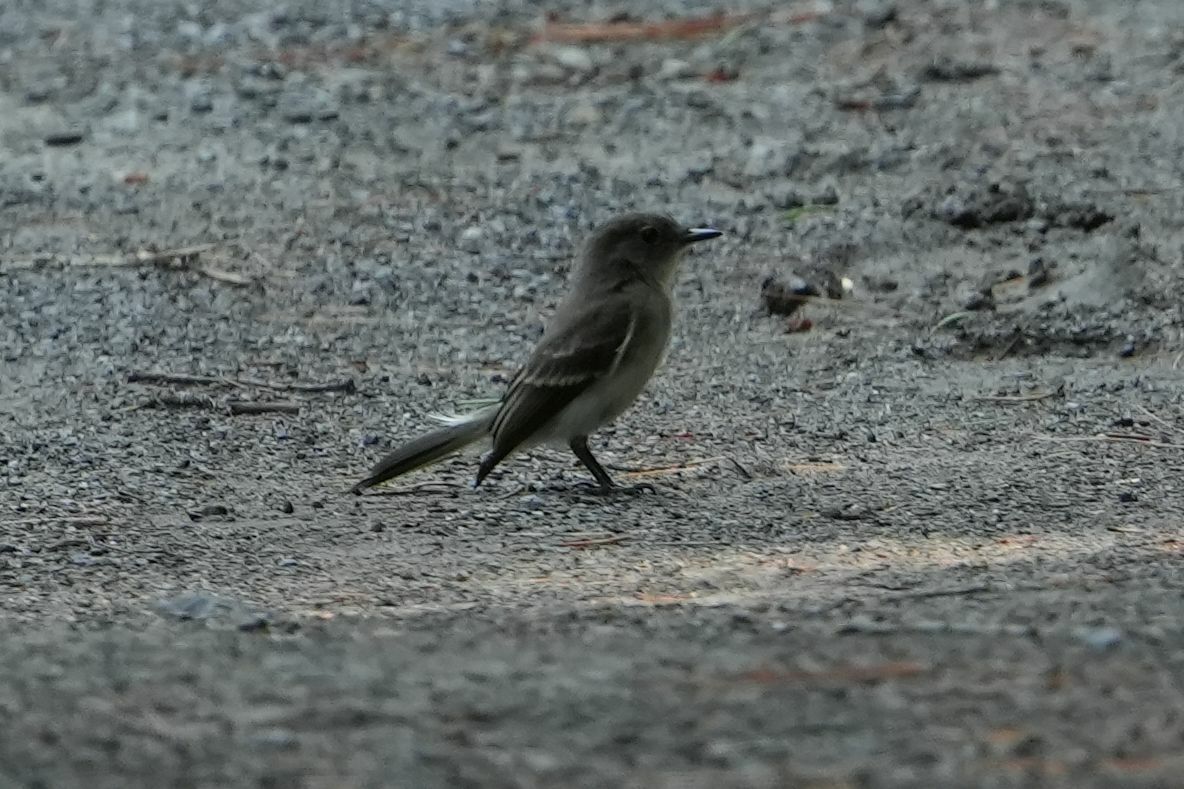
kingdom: Animalia
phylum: Chordata
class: Aves
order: Passeriformes
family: Tyrannidae
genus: Sayornis
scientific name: Sayornis phoebe
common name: Eastern phoebe
